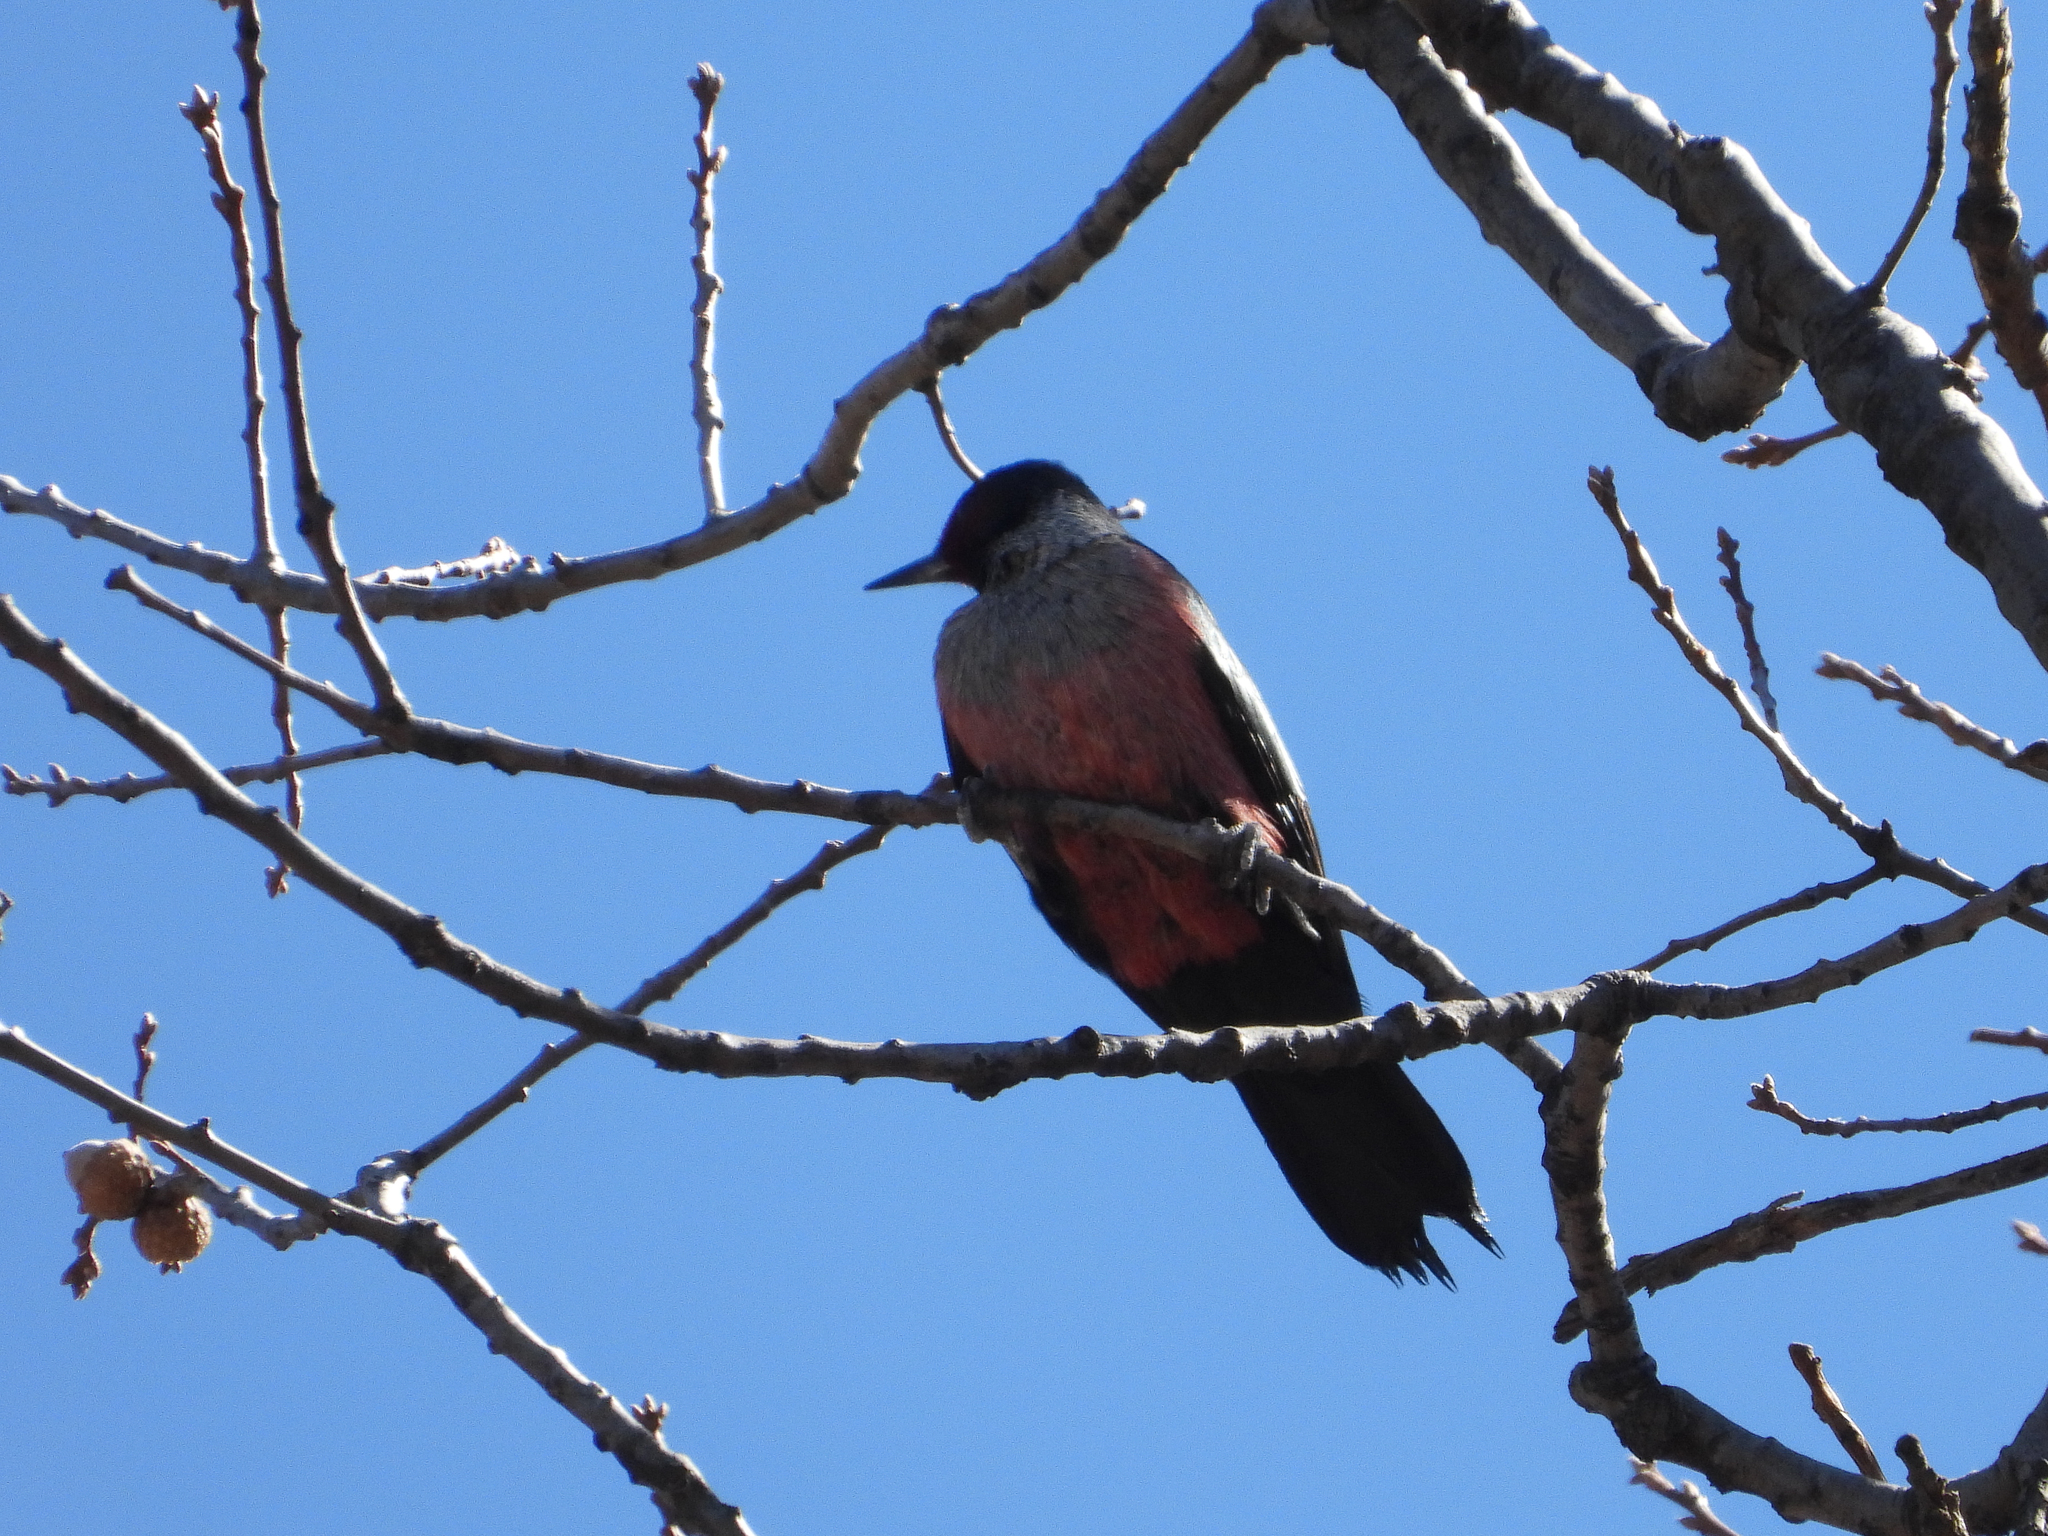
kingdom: Animalia
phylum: Chordata
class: Aves
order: Piciformes
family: Picidae
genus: Melanerpes
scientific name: Melanerpes lewis
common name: Lewis's woodpecker
